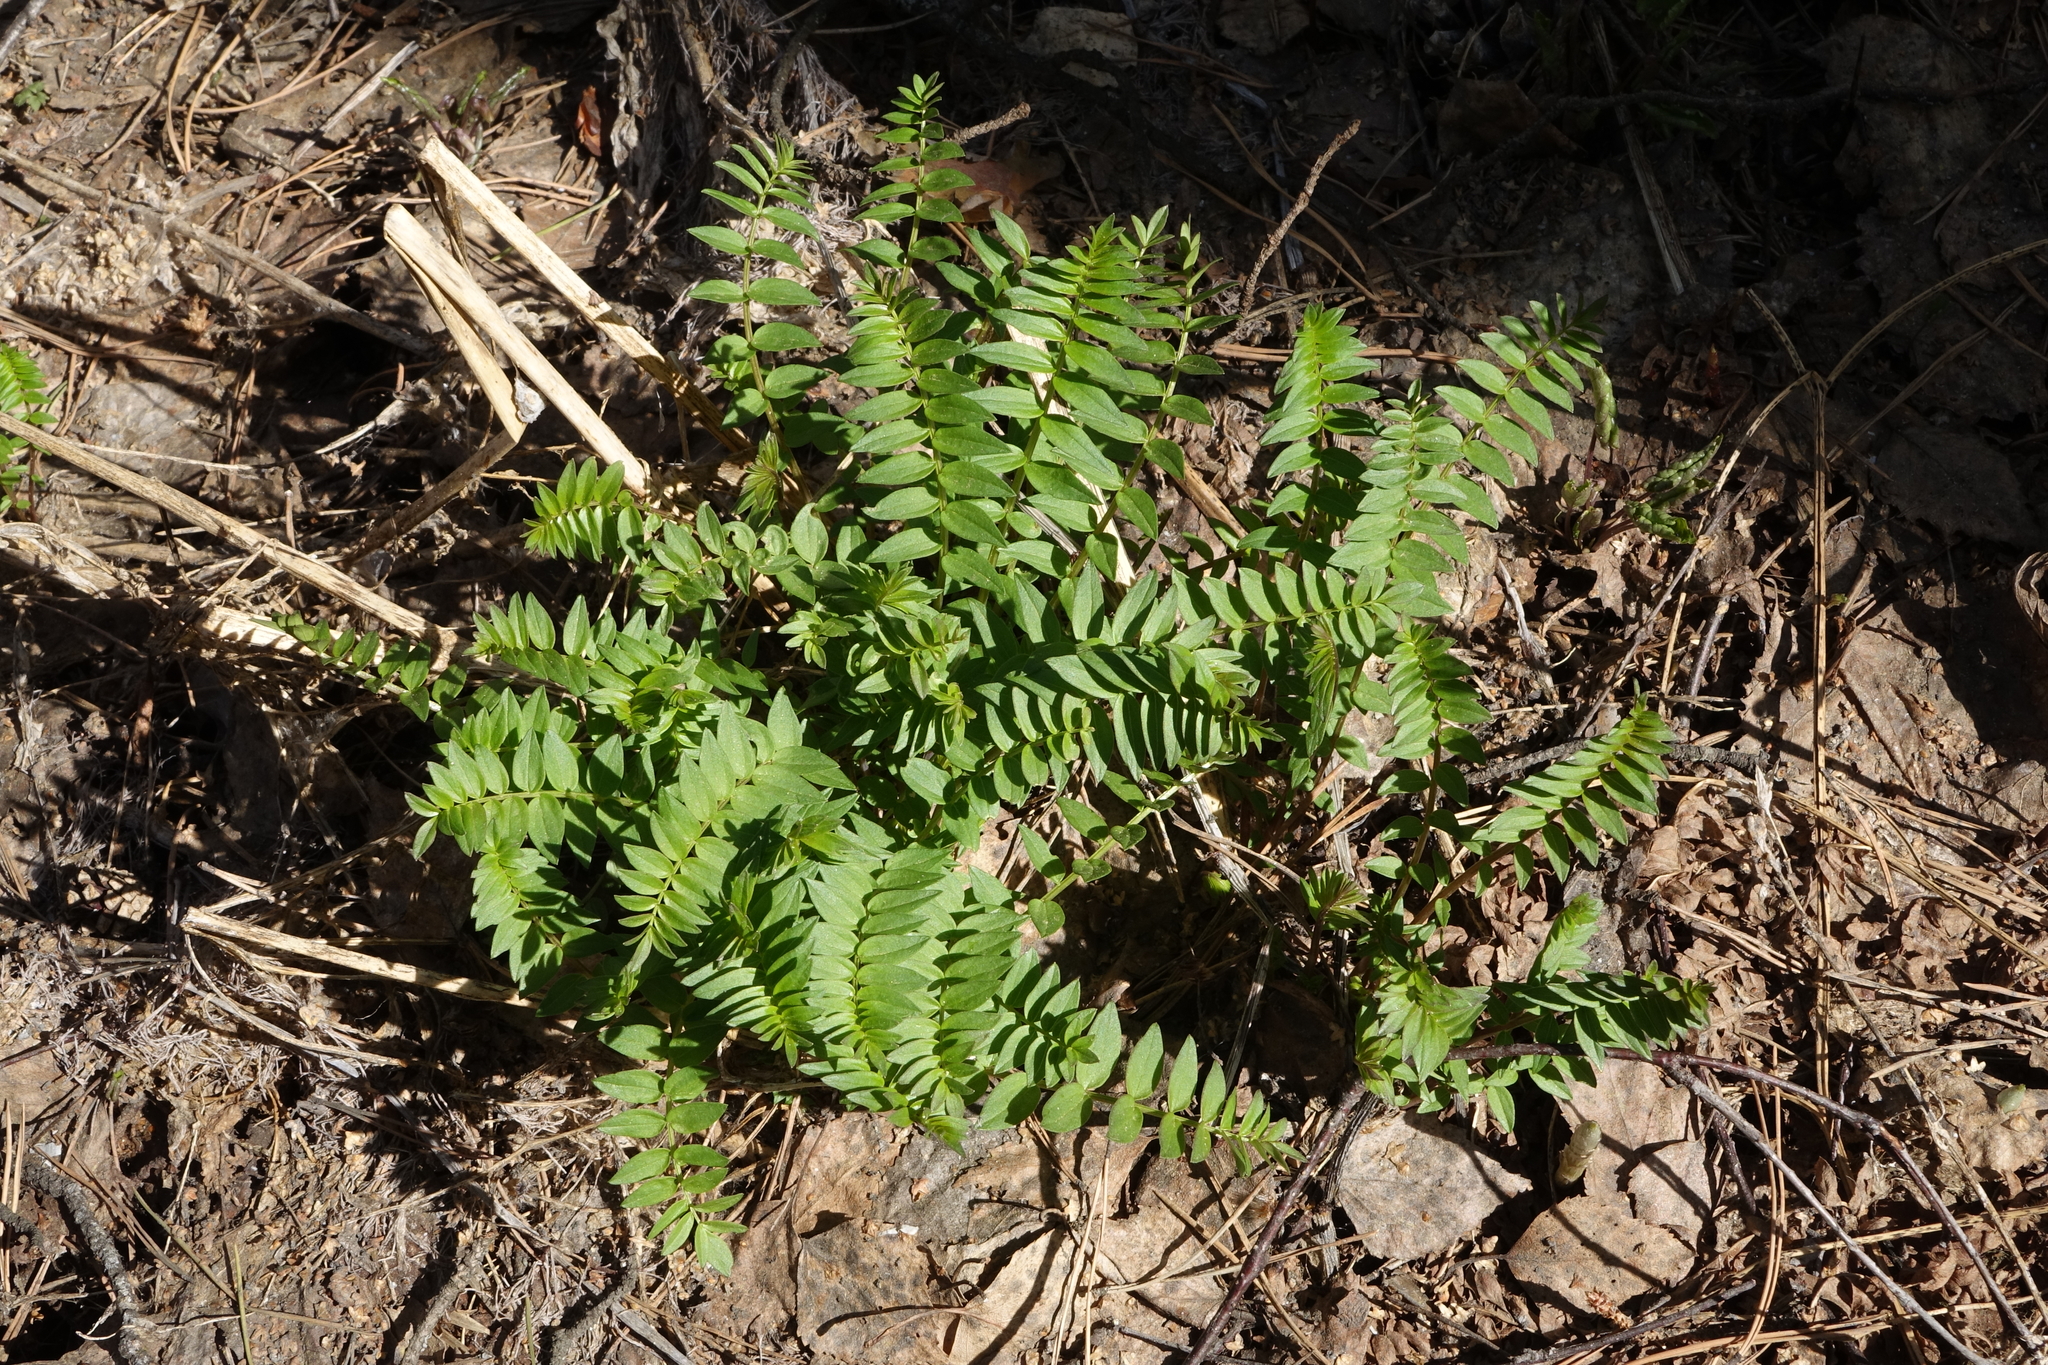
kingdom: Plantae
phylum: Tracheophyta
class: Magnoliopsida
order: Ericales
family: Polemoniaceae
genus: Polemonium
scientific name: Polemonium caeruleum
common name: Jacob's-ladder
